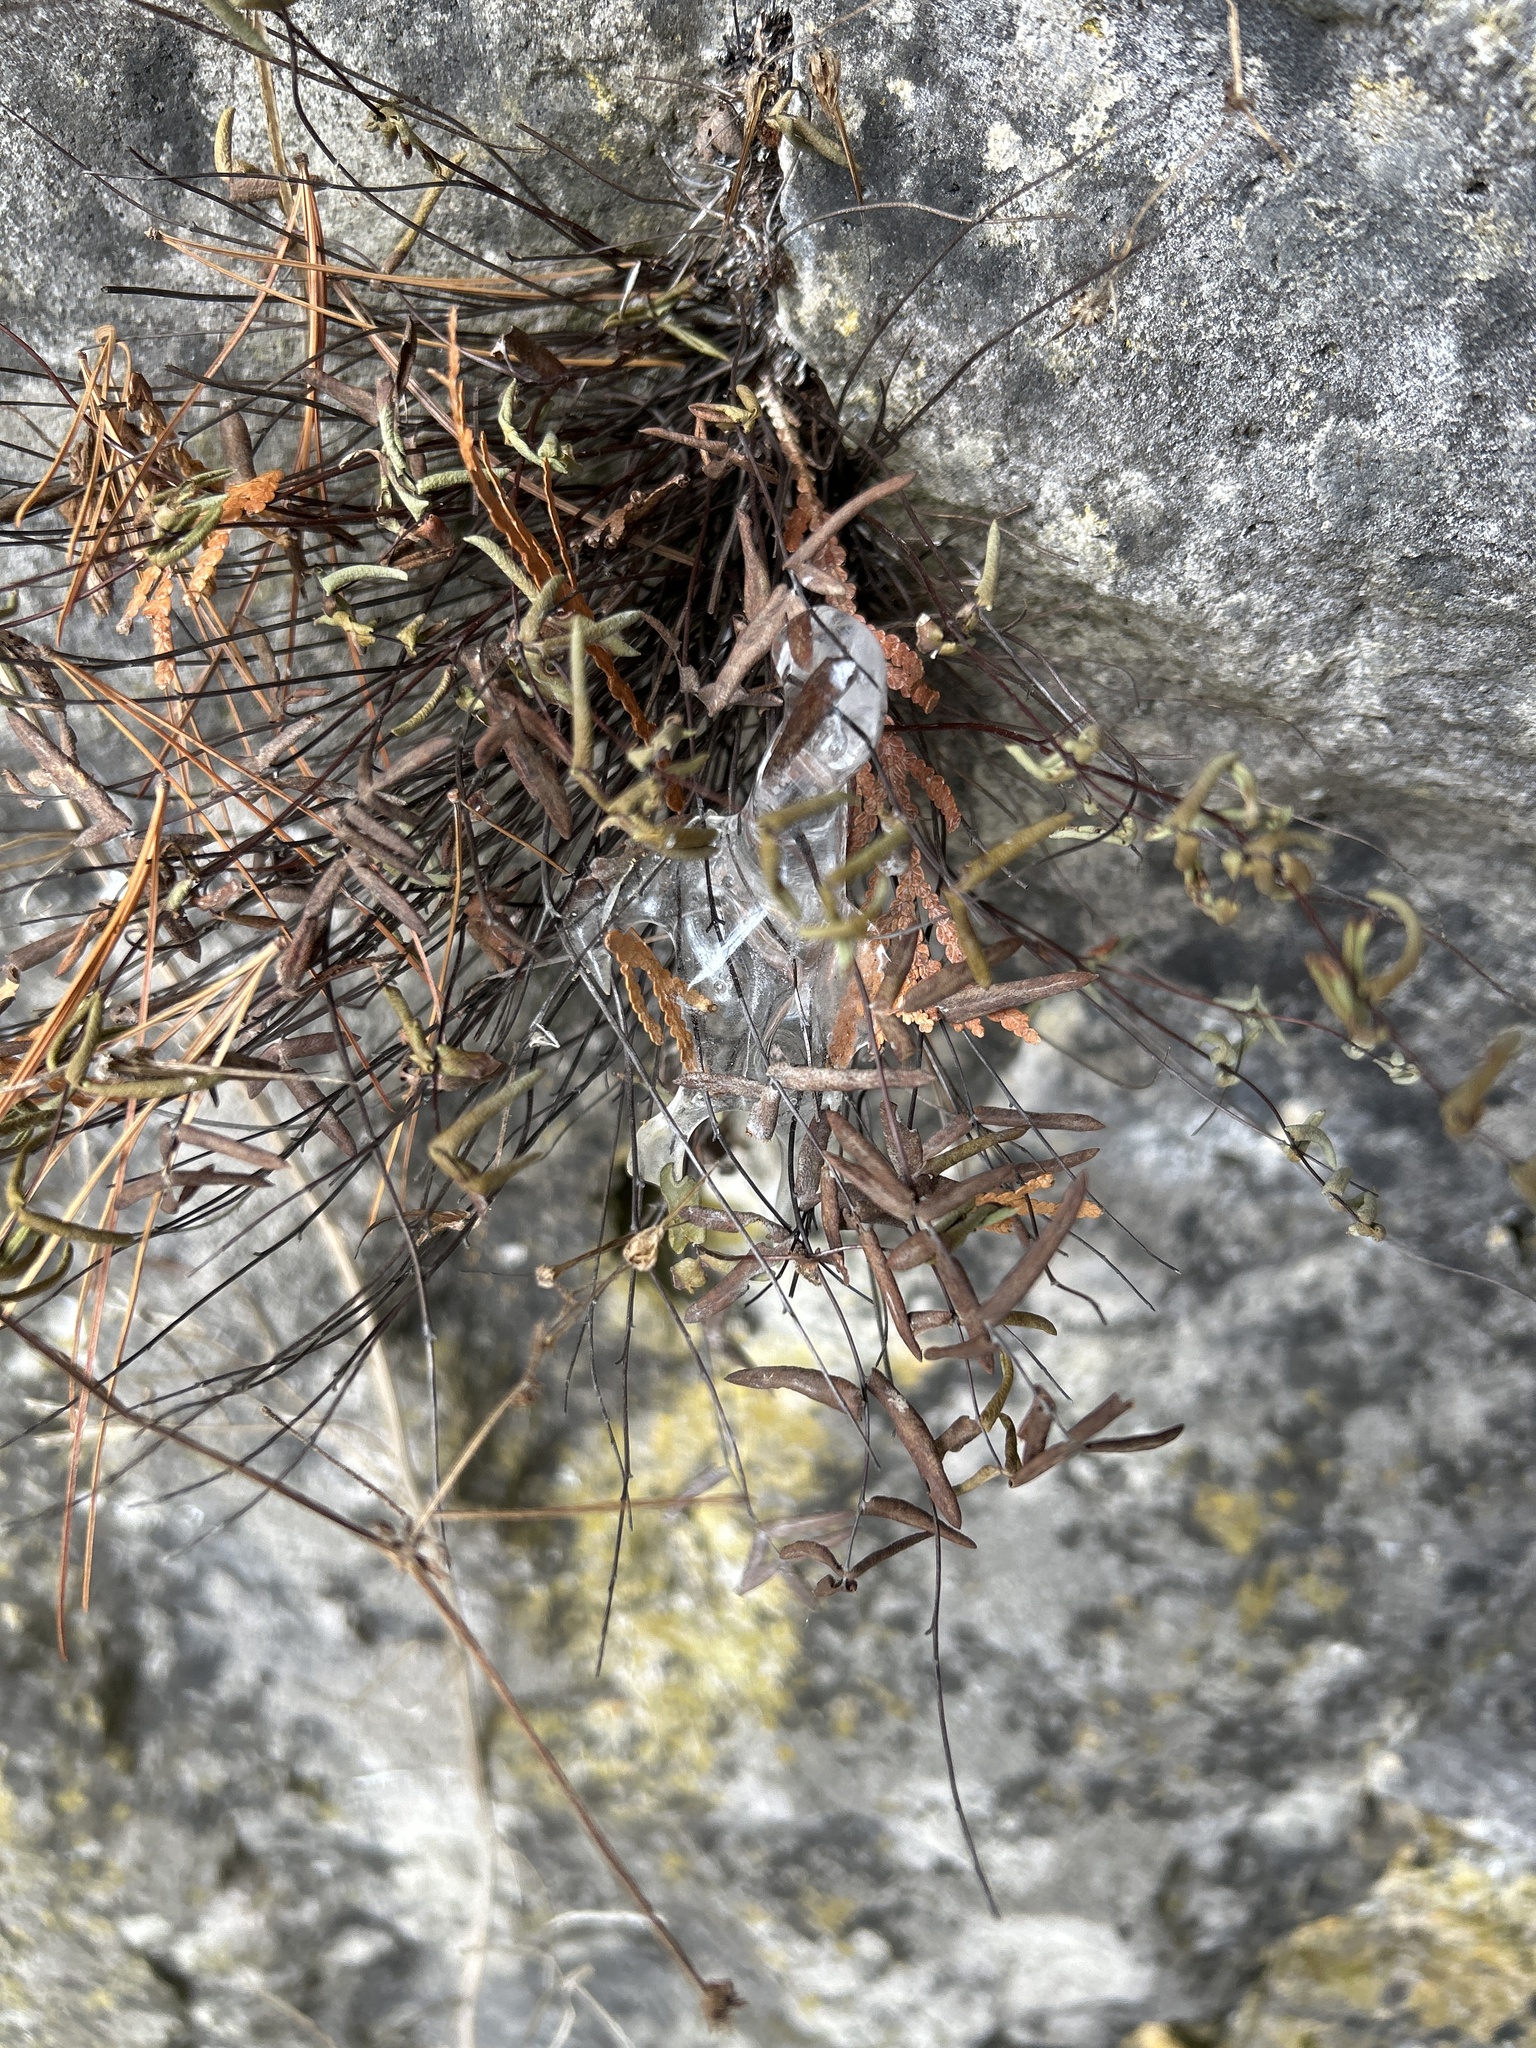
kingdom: Plantae
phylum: Tracheophyta
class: Polypodiopsida
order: Polypodiales
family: Pteridaceae
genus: Pellaea
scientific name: Pellaea glabella
